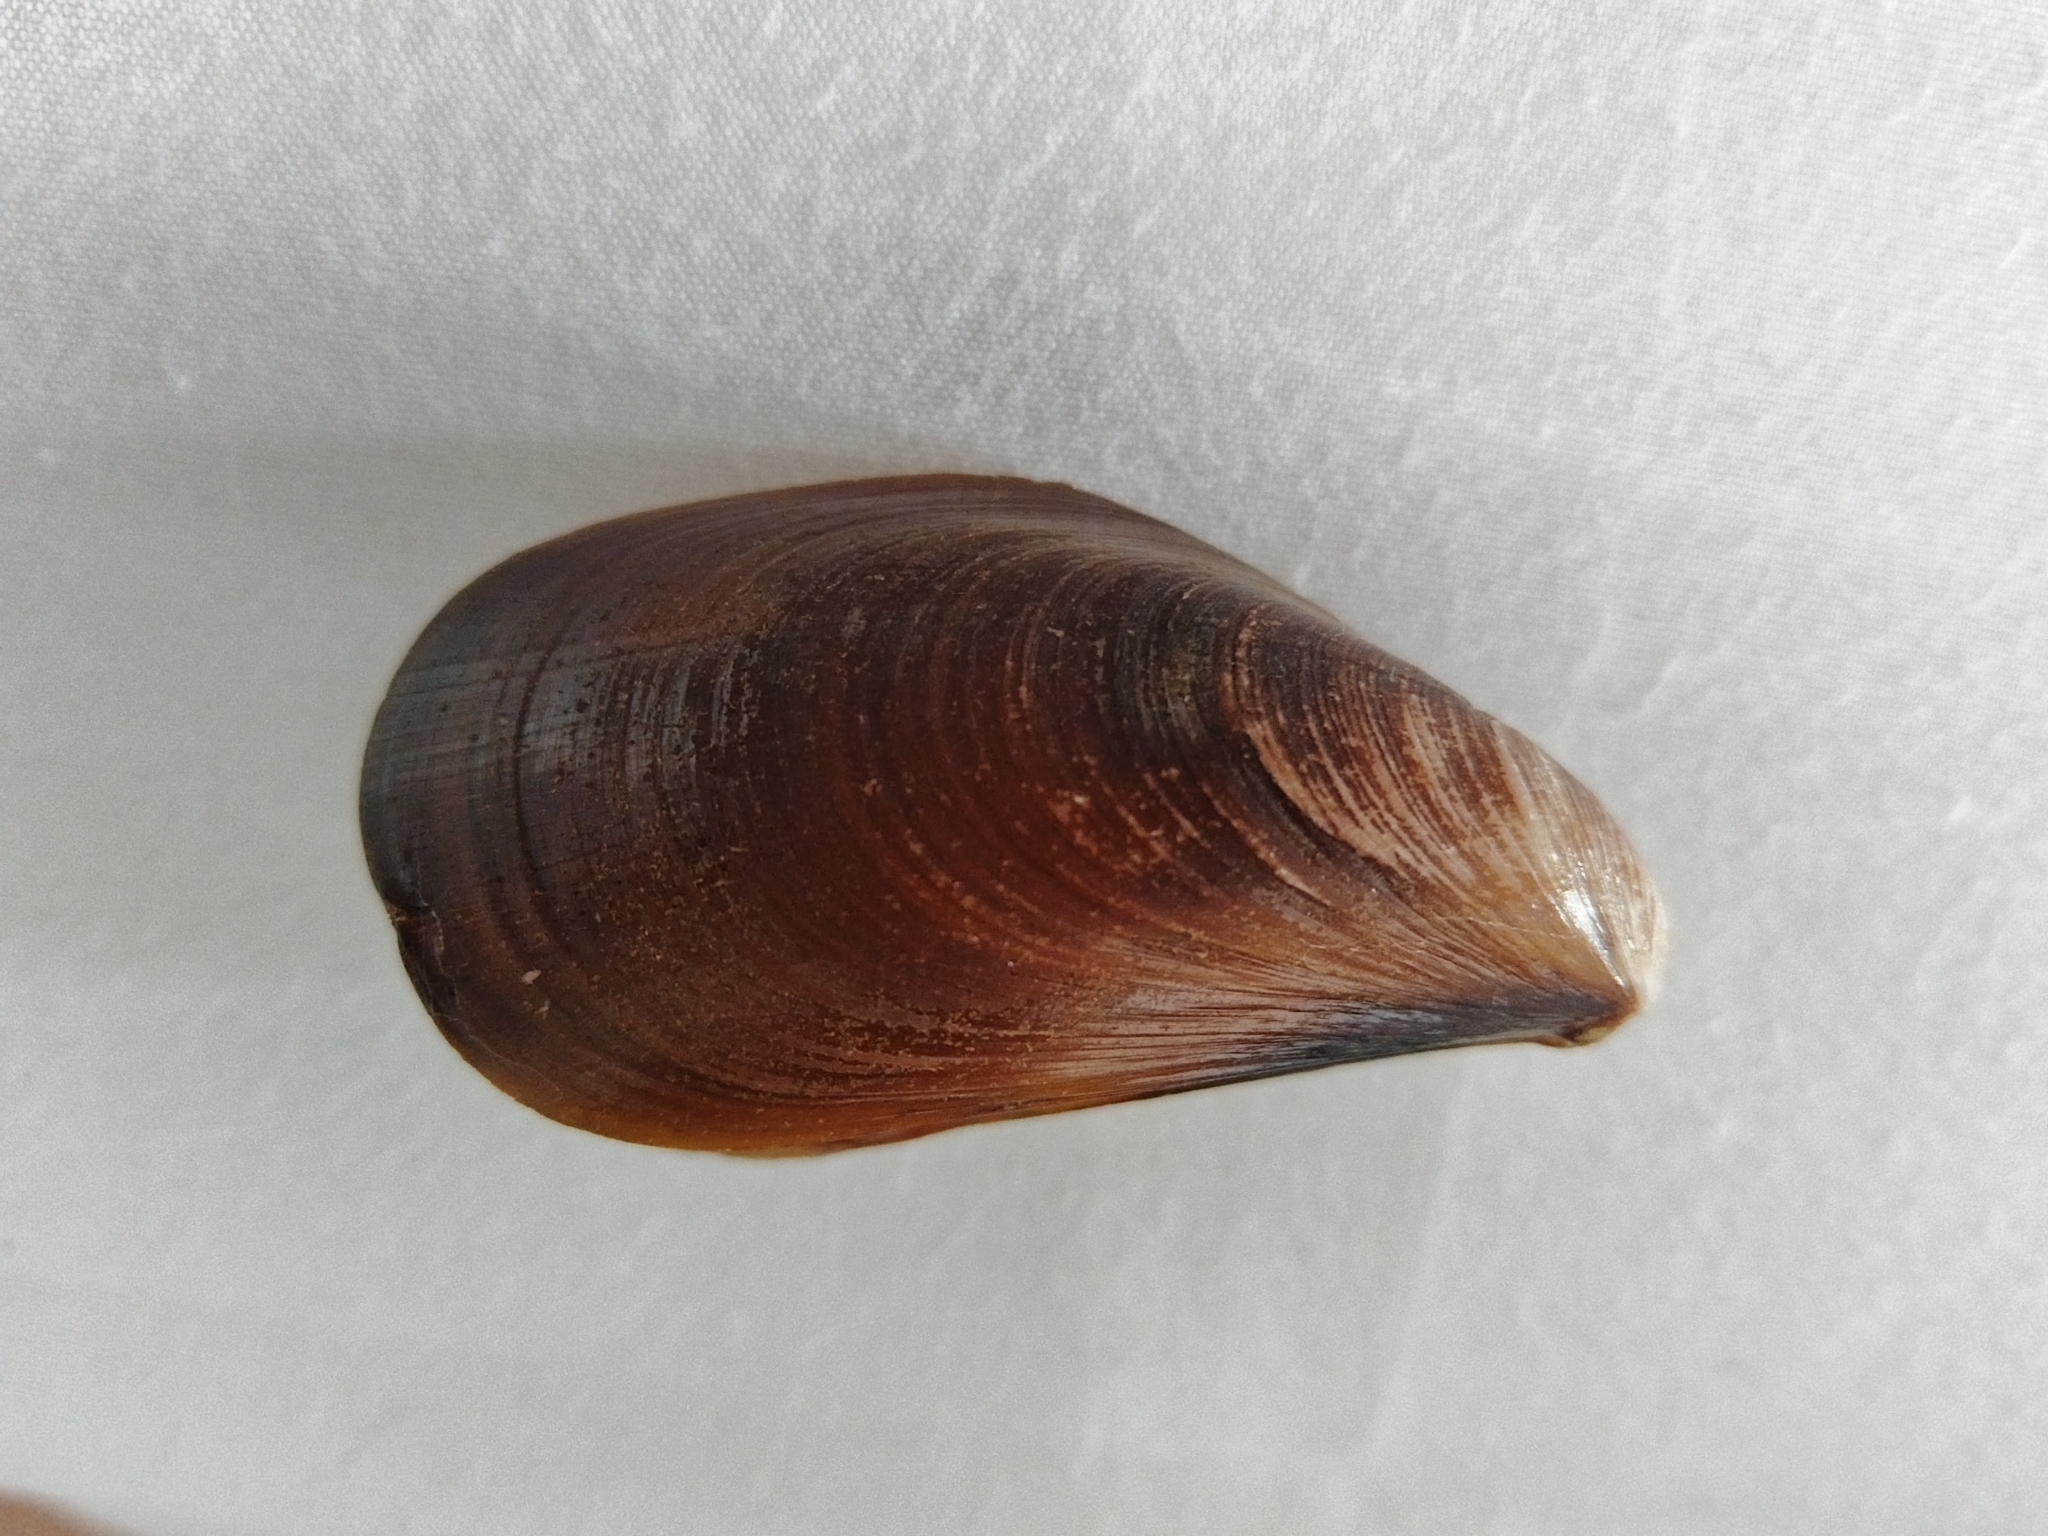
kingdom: Animalia
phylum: Mollusca
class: Bivalvia
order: Mytilida
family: Mytilidae
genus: Mytilus
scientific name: Mytilus galloprovincialis
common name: Mediterranean mussel
